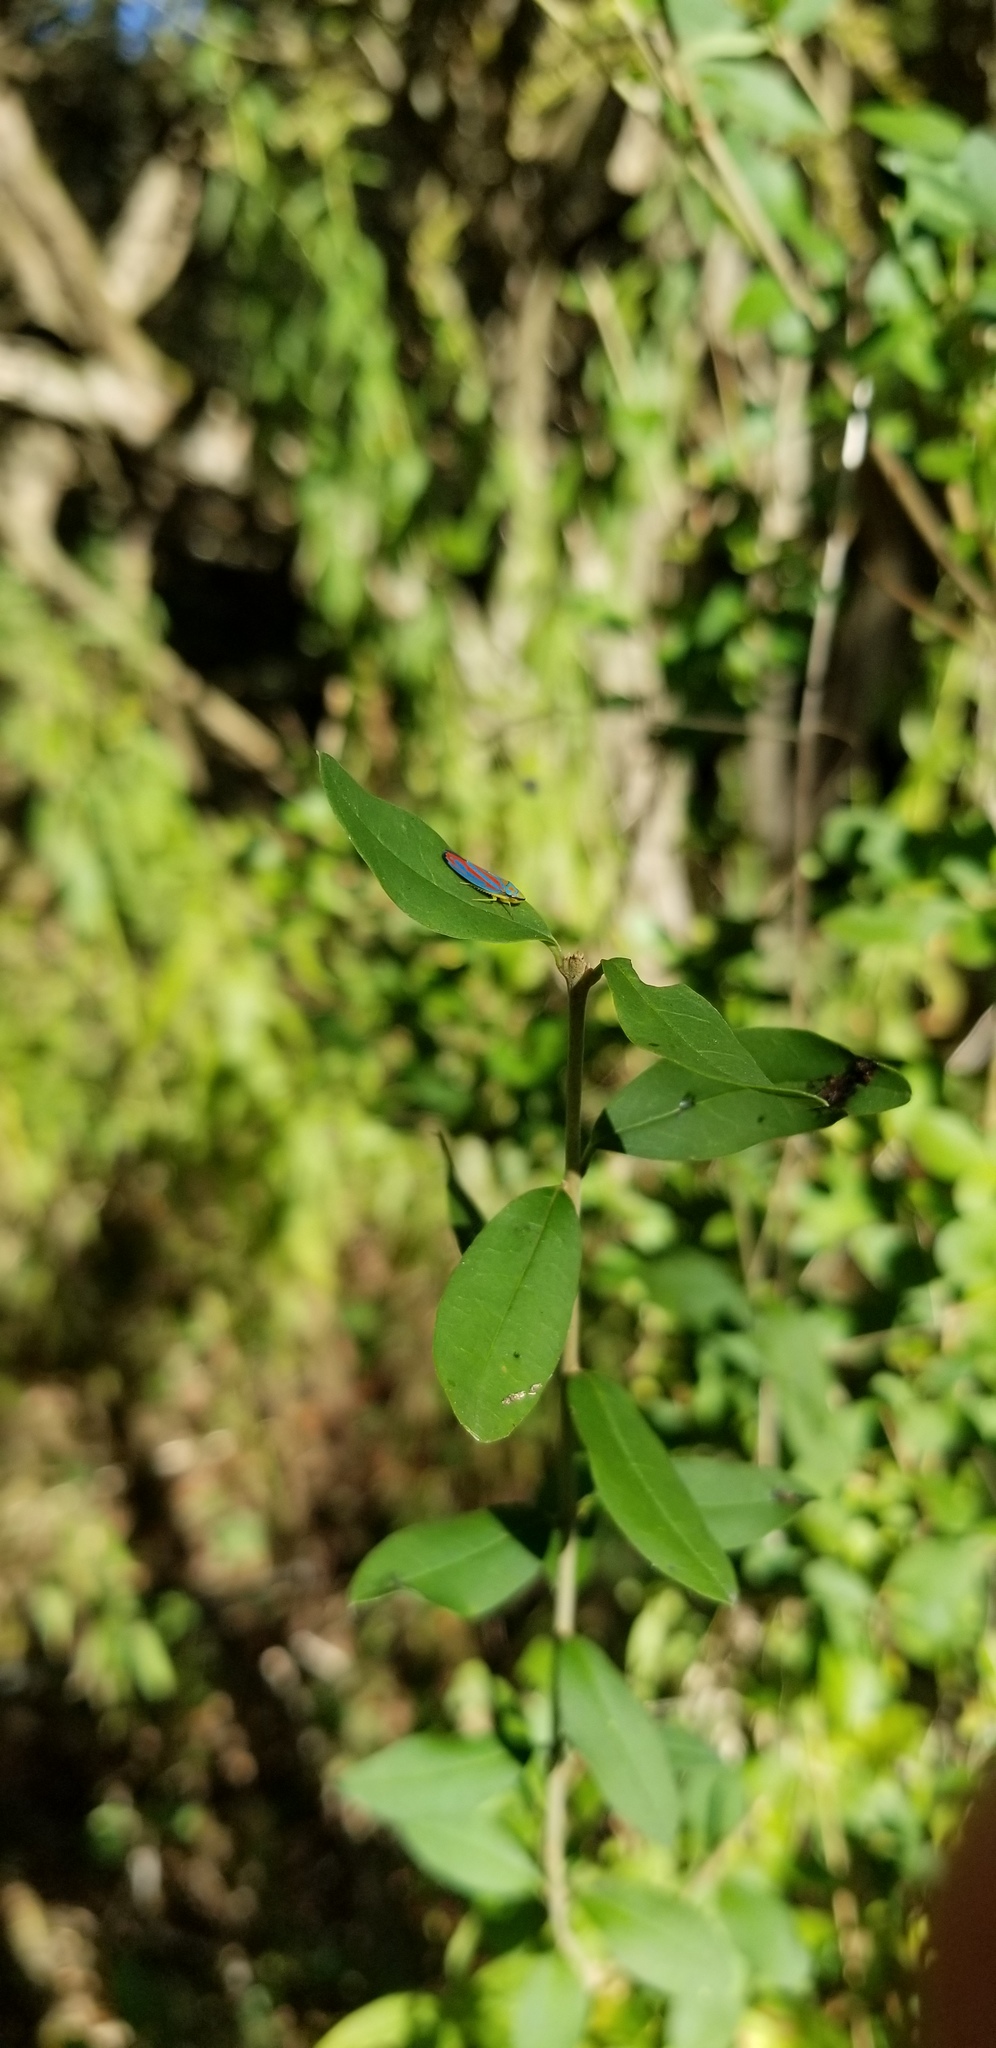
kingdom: Animalia
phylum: Arthropoda
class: Insecta
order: Hemiptera
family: Cicadellidae
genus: Graphocephala
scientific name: Graphocephala coccinea
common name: Candy-striped leafhopper
